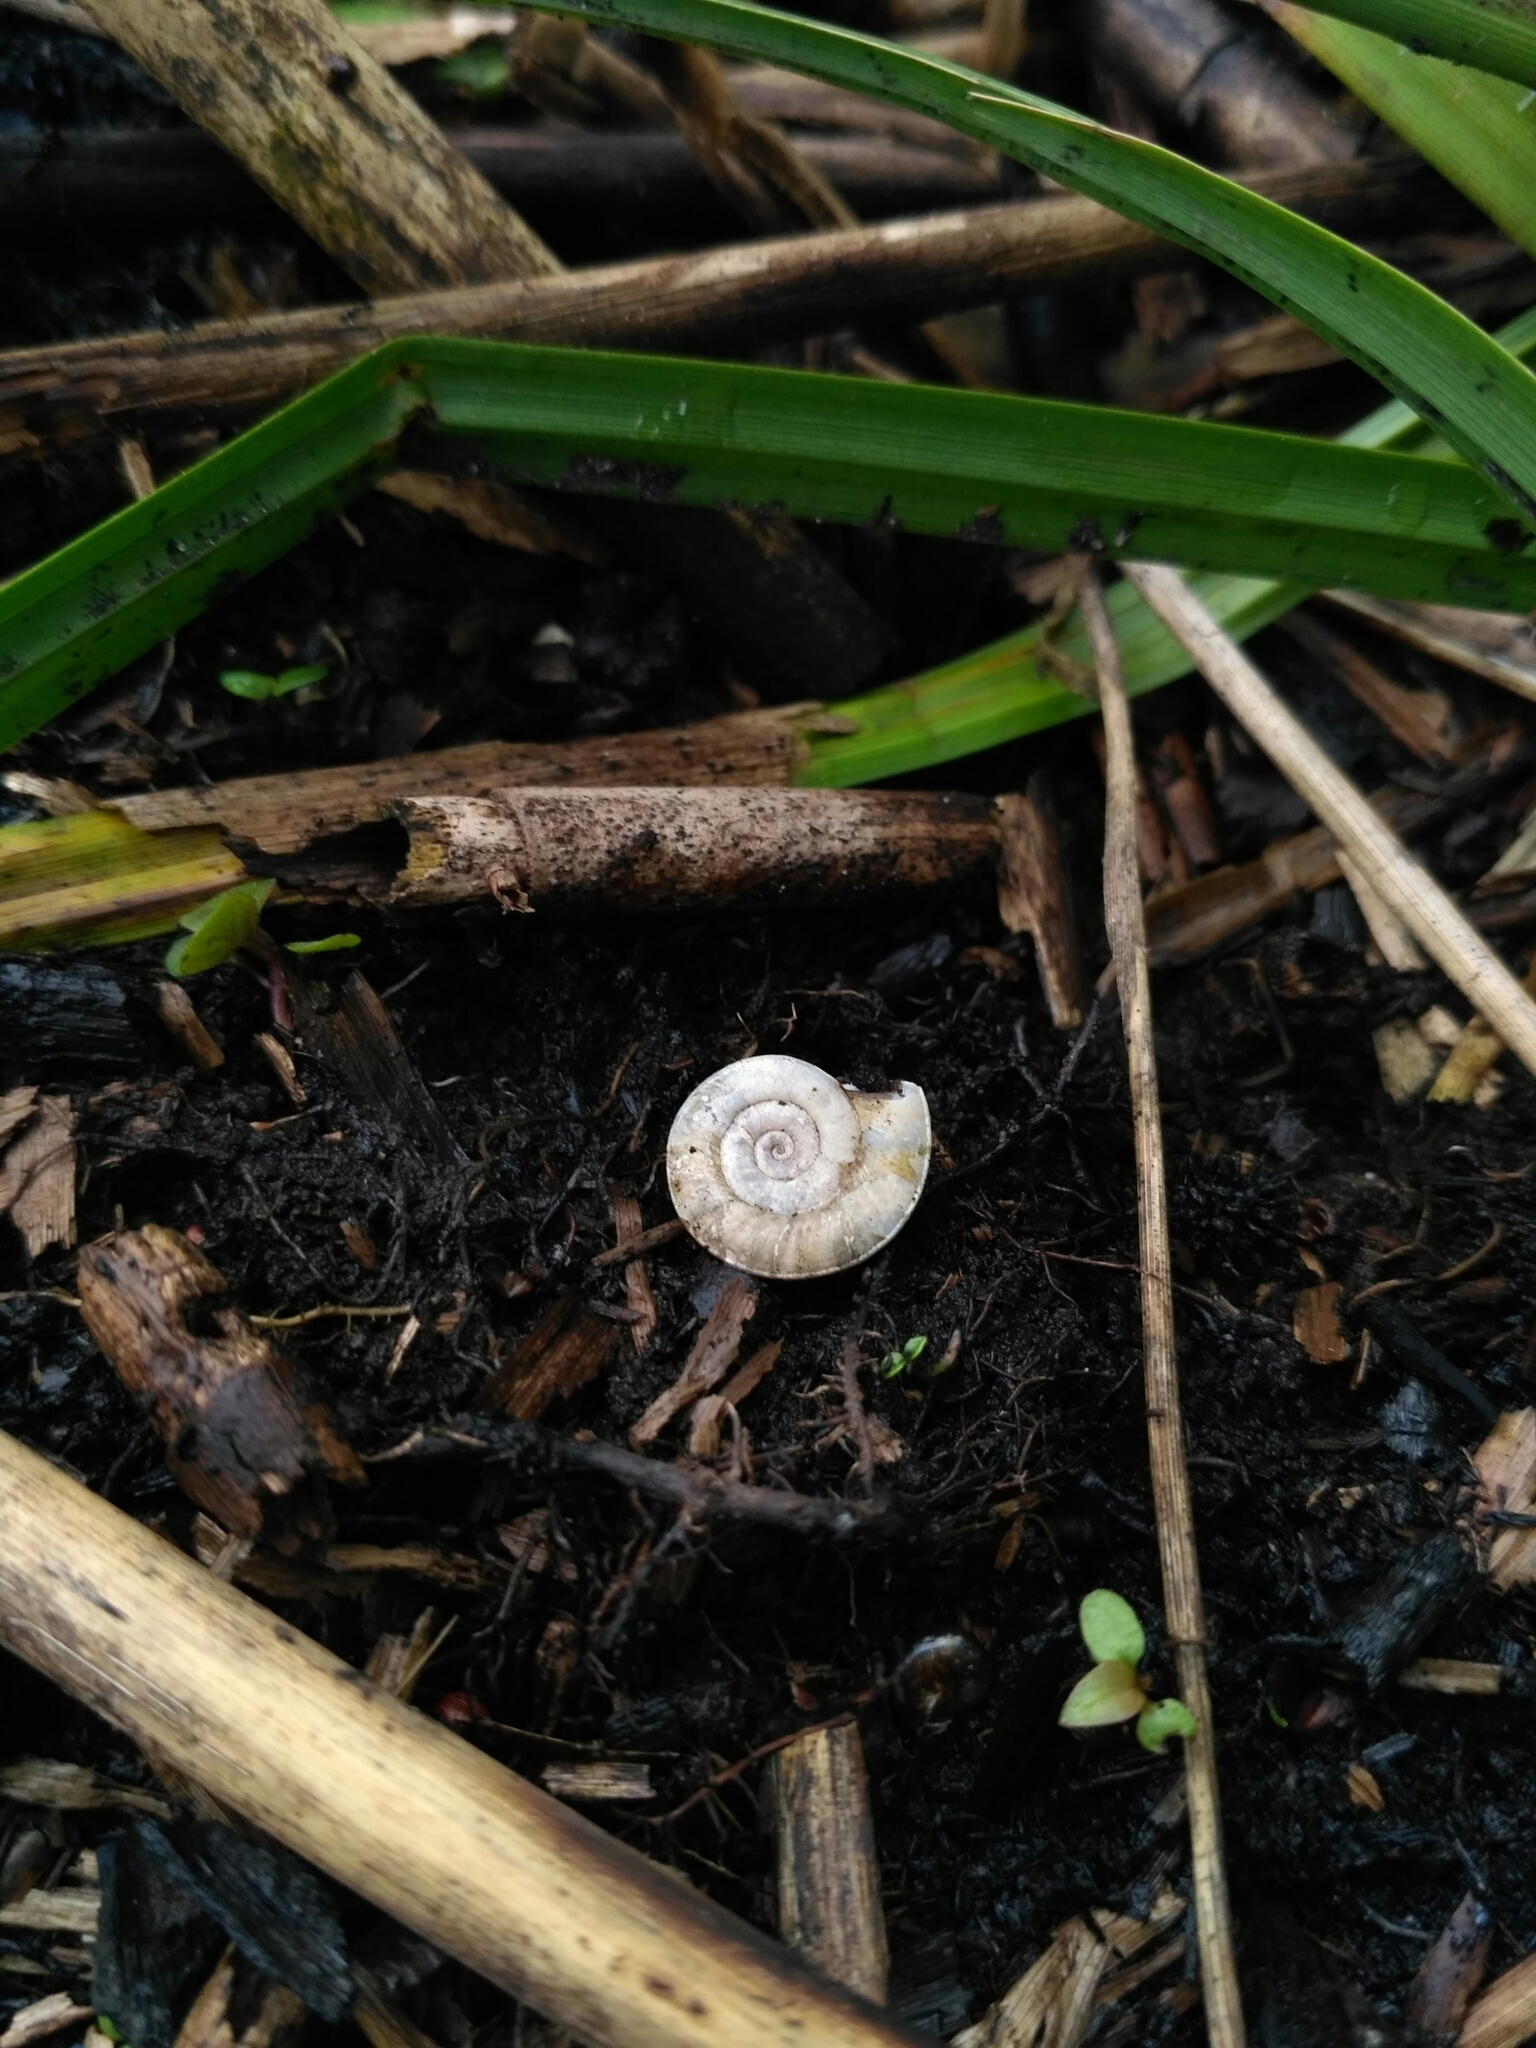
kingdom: Animalia
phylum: Mollusca
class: Gastropoda
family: Planorbidae
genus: Planorbis
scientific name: Planorbis planorbis
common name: Margined ramshorn
